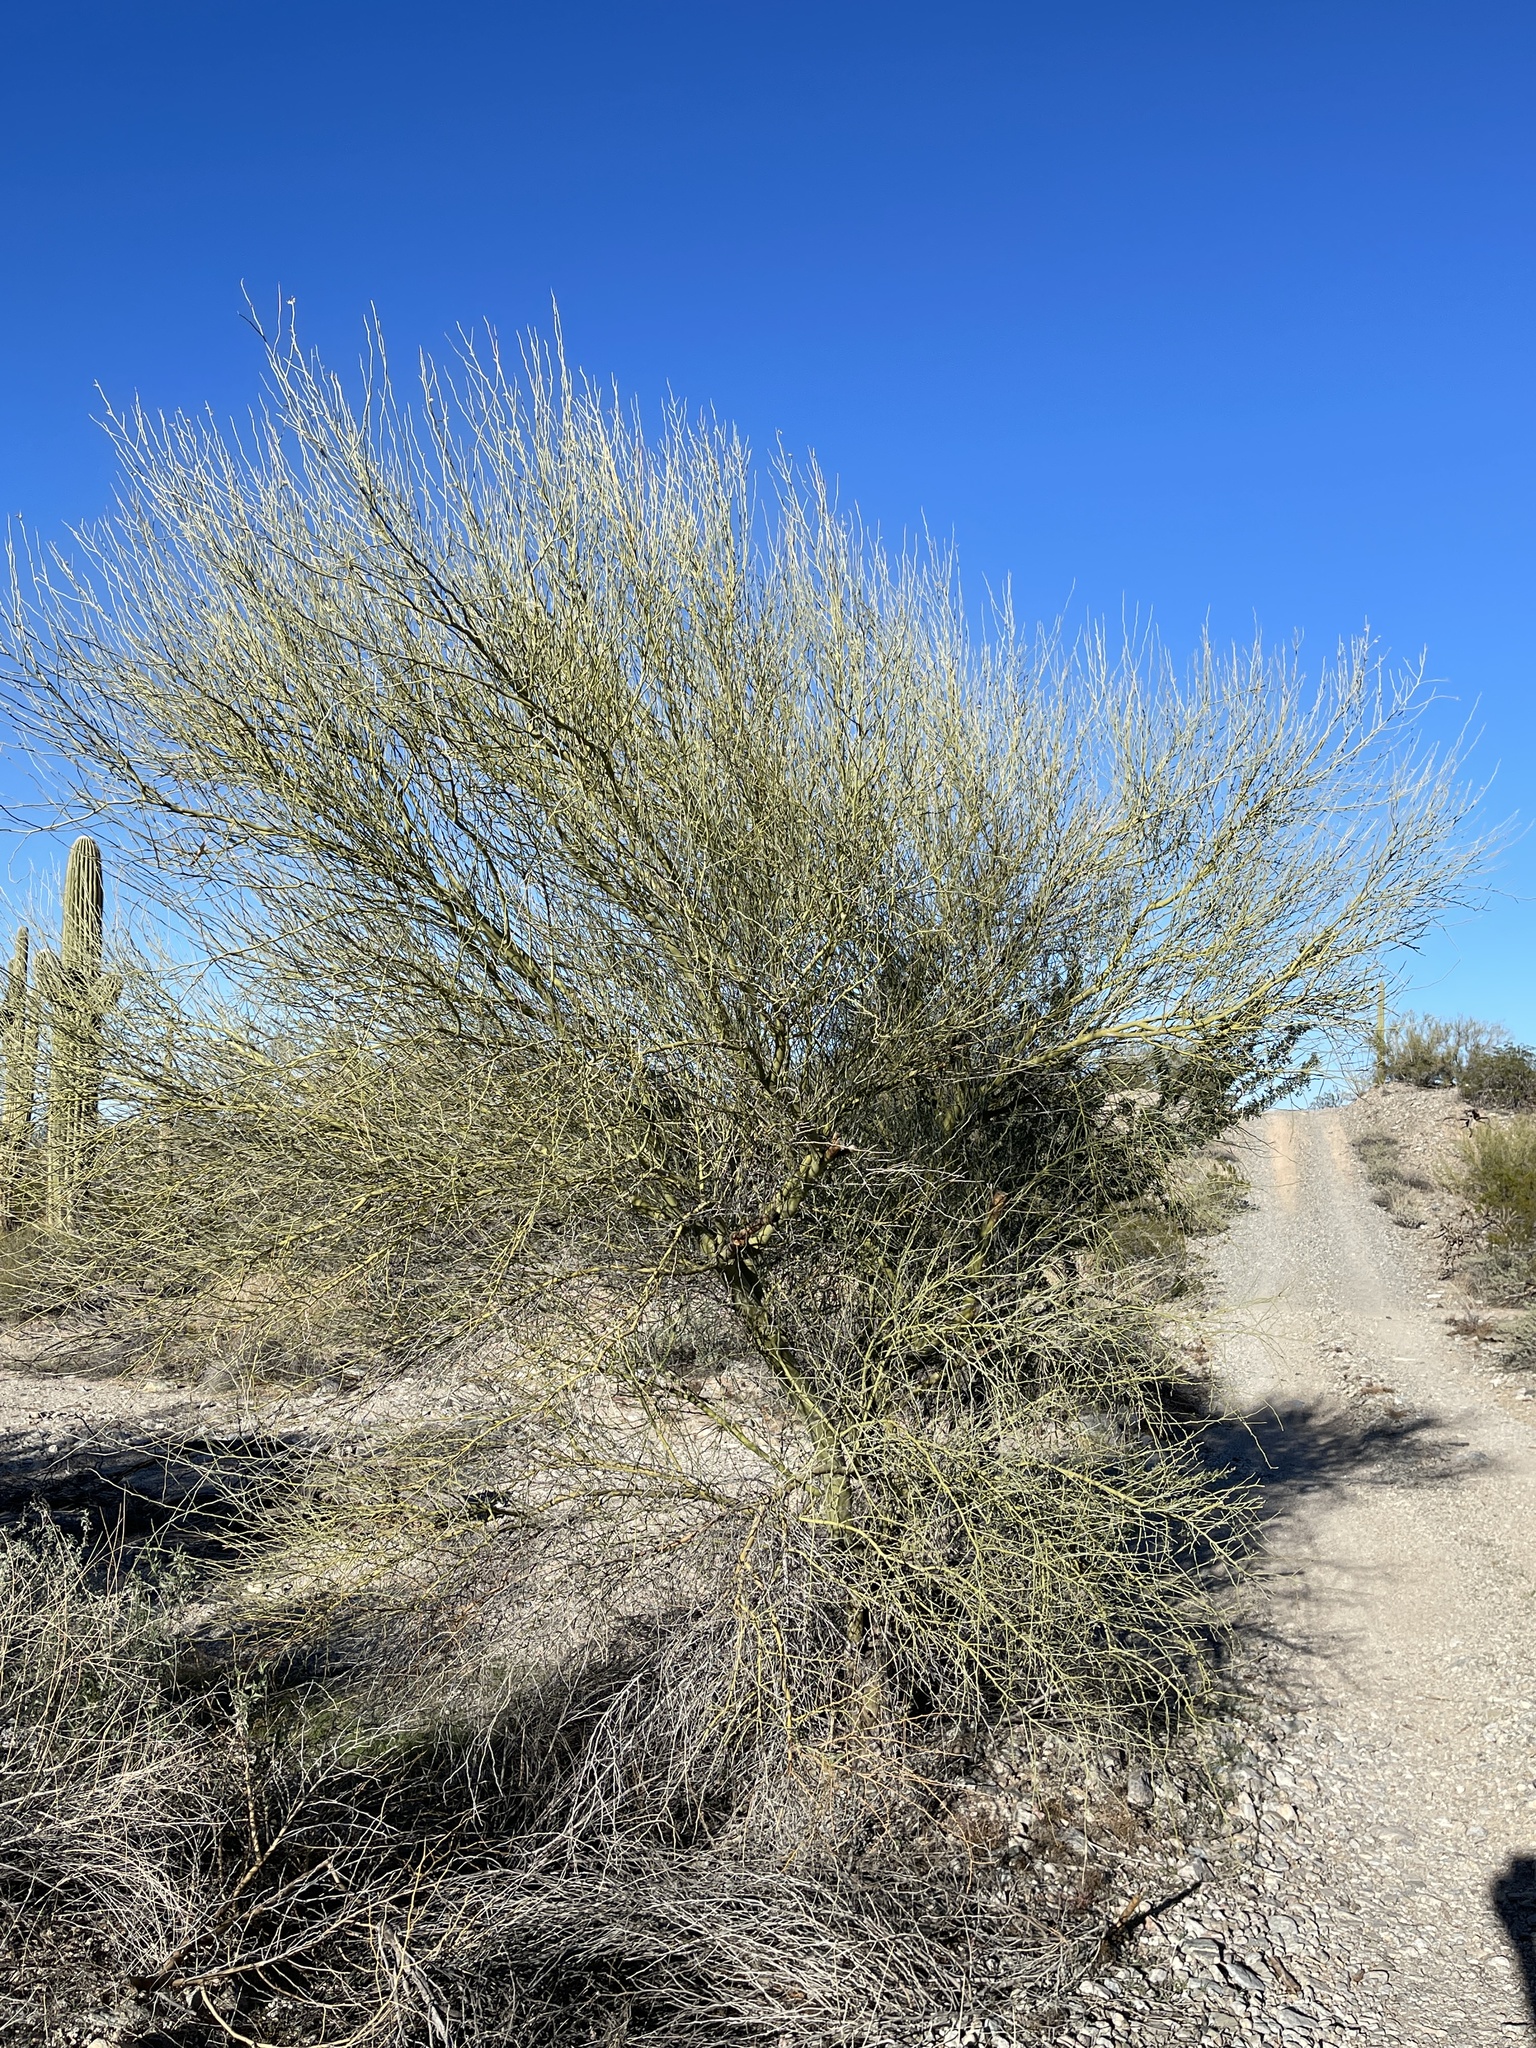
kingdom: Plantae
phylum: Tracheophyta
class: Magnoliopsida
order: Fabales
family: Fabaceae
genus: Parkinsonia
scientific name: Parkinsonia florida
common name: Blue paloverde
